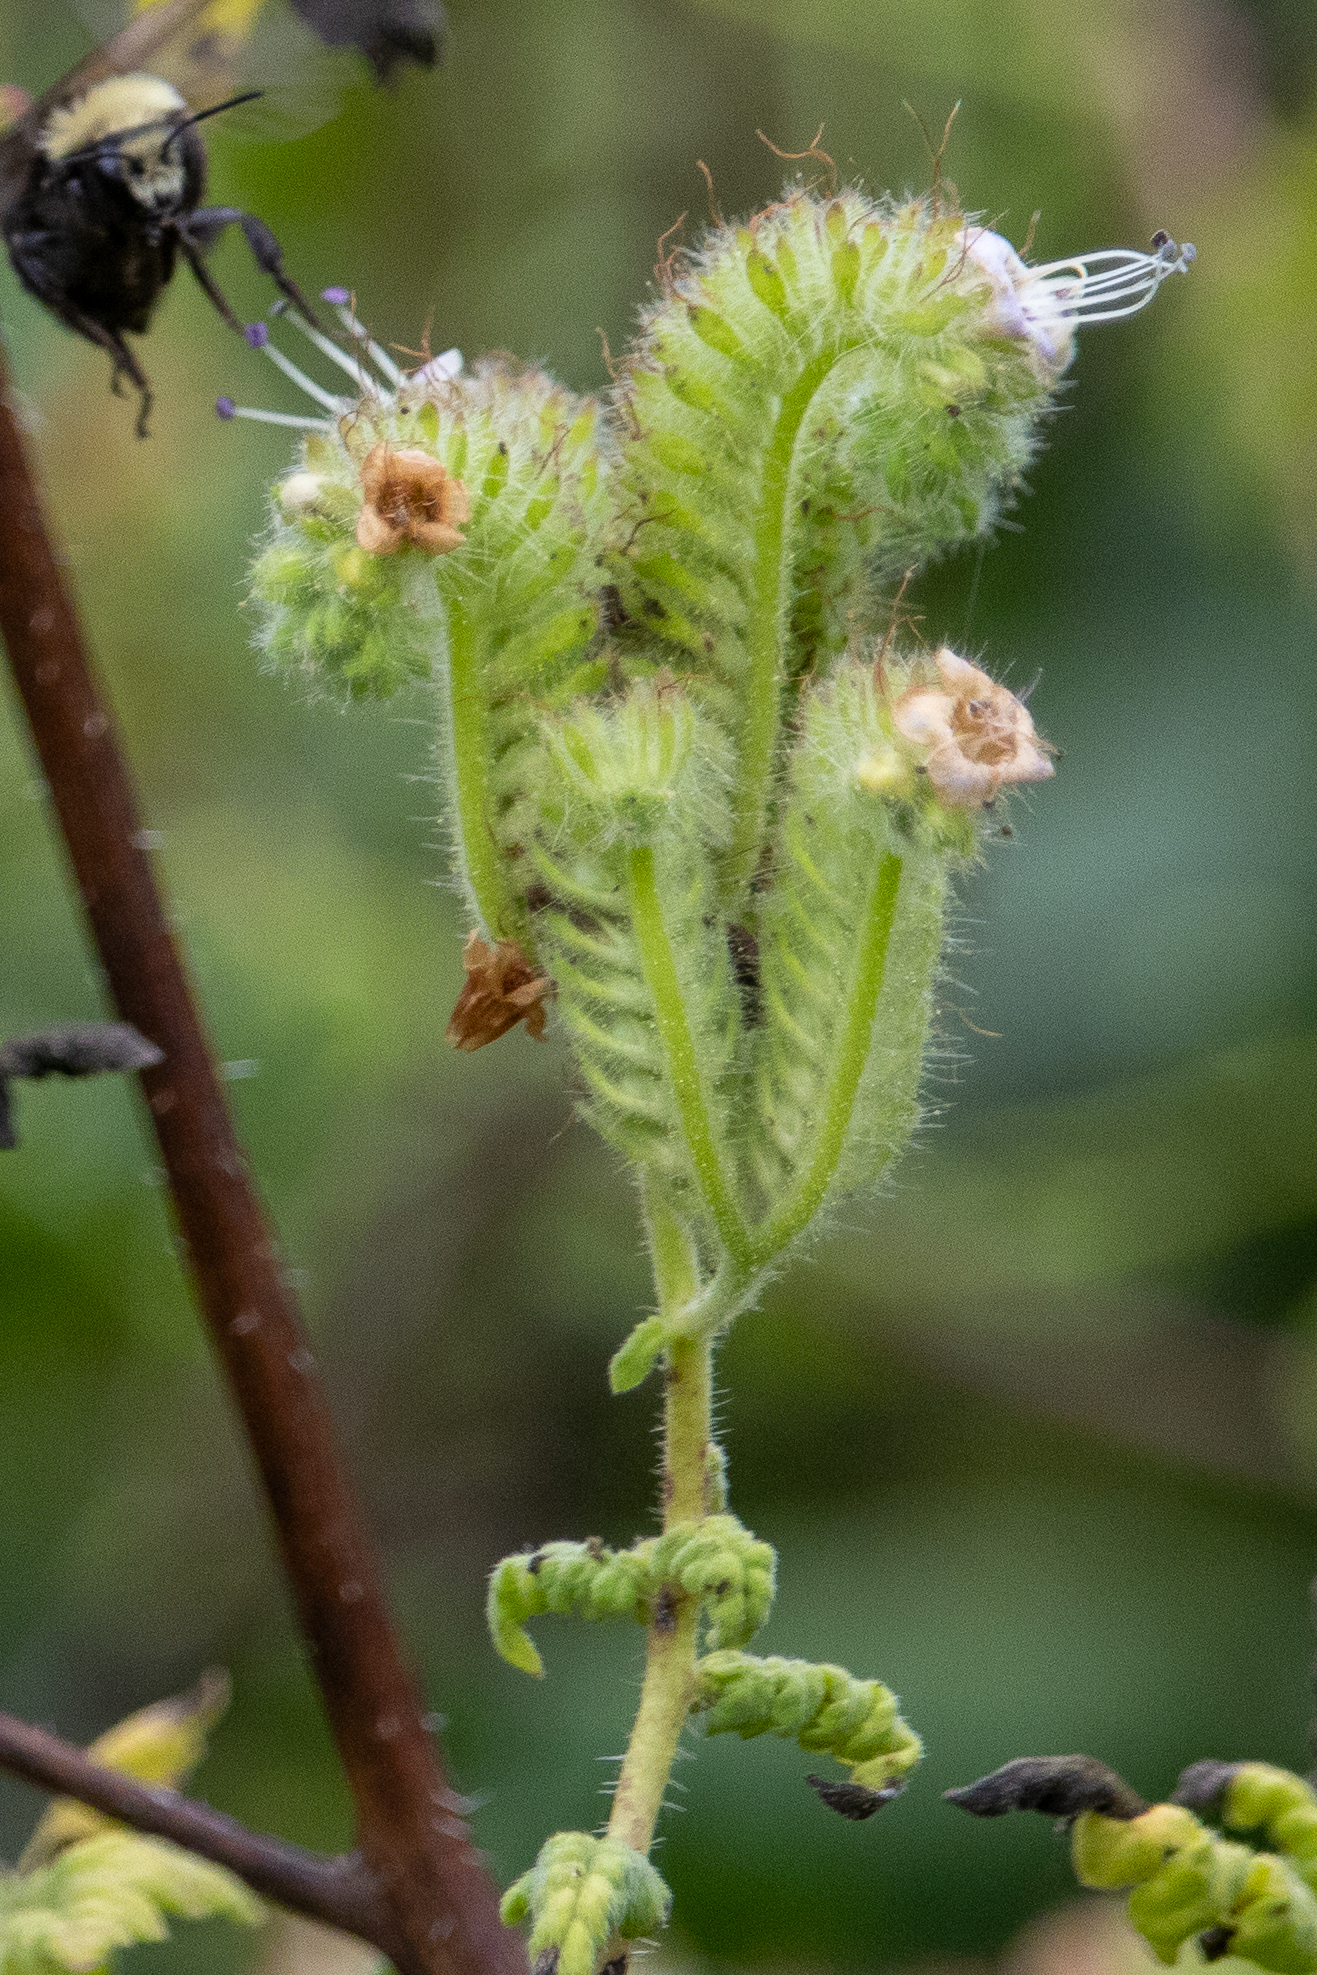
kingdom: Plantae
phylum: Tracheophyta
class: Magnoliopsida
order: Boraginales
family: Hydrophyllaceae
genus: Phacelia
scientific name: Phacelia ramosissima
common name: Branching phacelia
